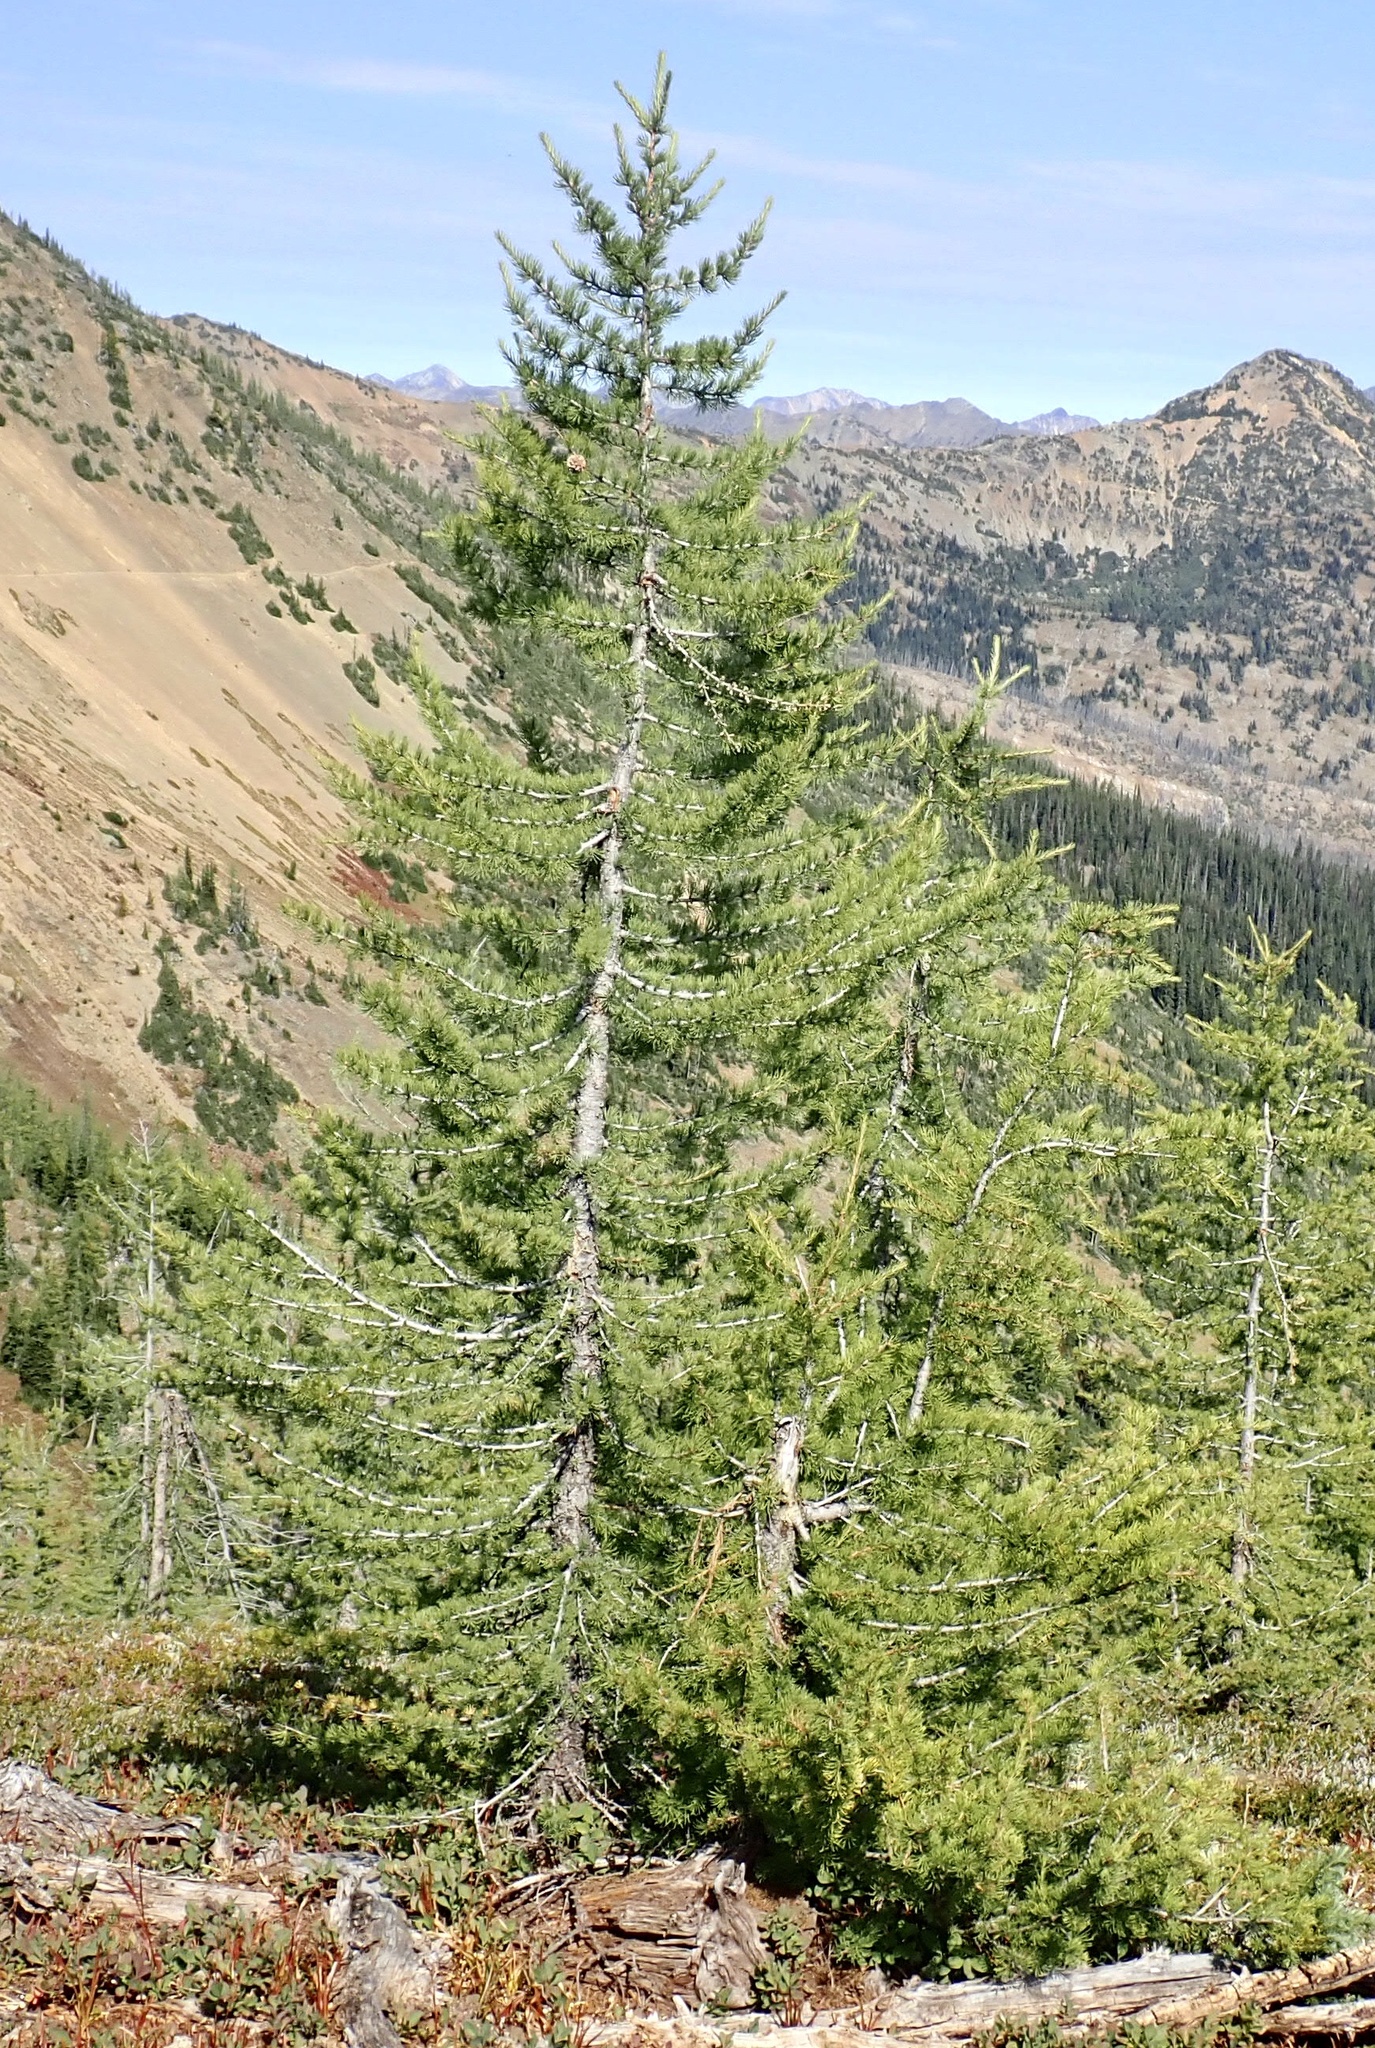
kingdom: Plantae
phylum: Tracheophyta
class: Pinopsida
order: Pinales
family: Pinaceae
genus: Larix
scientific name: Larix lyallii
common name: Alpine larch
